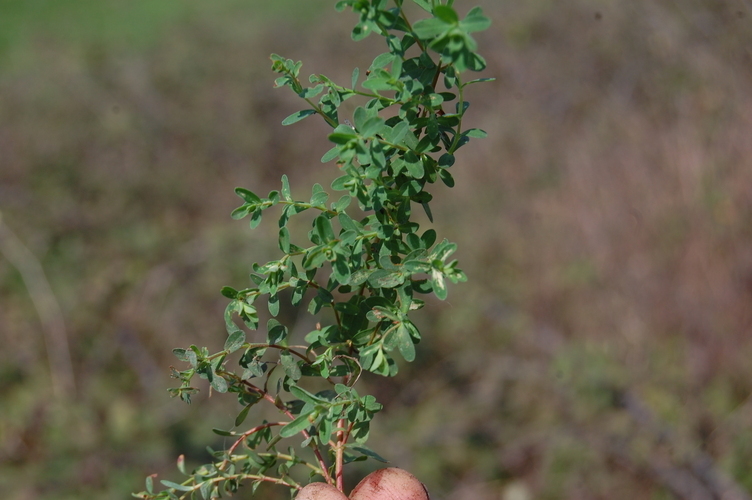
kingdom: Plantae
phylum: Tracheophyta
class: Magnoliopsida
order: Malpighiales
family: Hypericaceae
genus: Hypericum
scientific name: Hypericum perforatum
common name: Common st. johnswort
